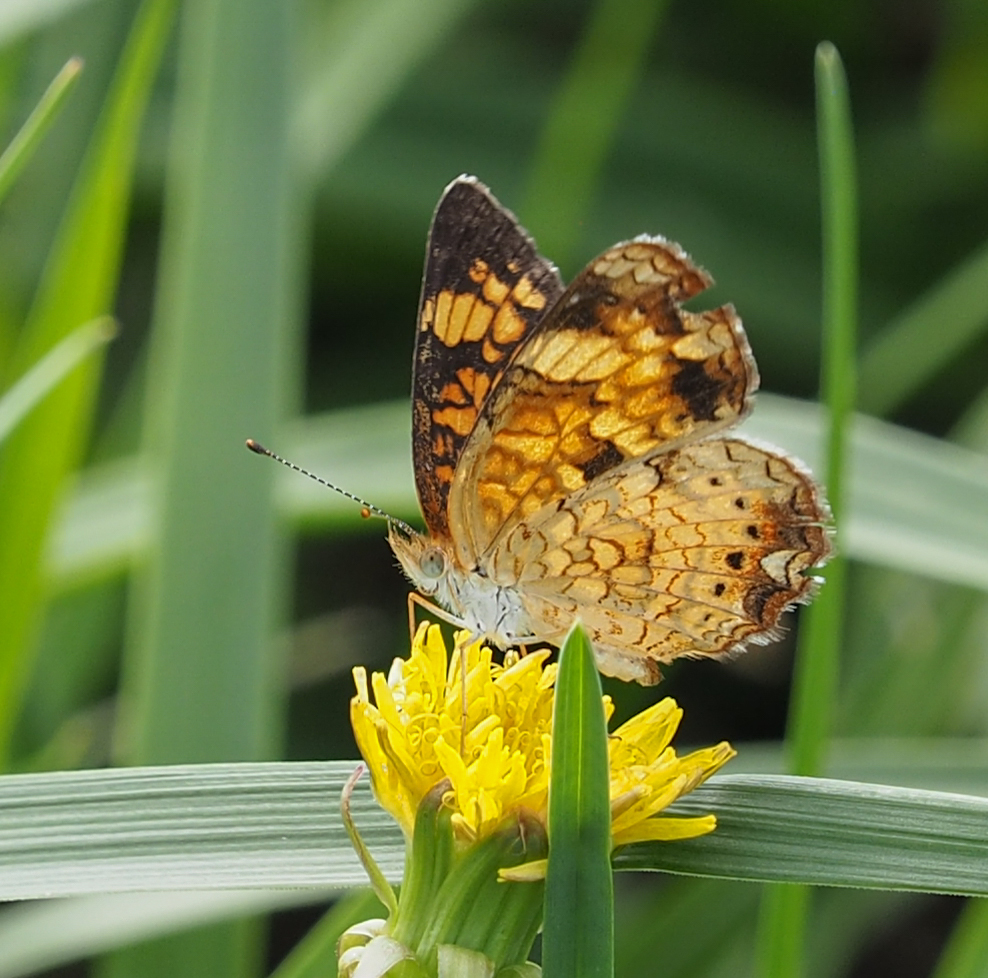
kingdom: Animalia
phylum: Arthropoda
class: Insecta
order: Lepidoptera
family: Nymphalidae
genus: Phyciodes
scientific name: Phyciodes tharos
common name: Pearl crescent
